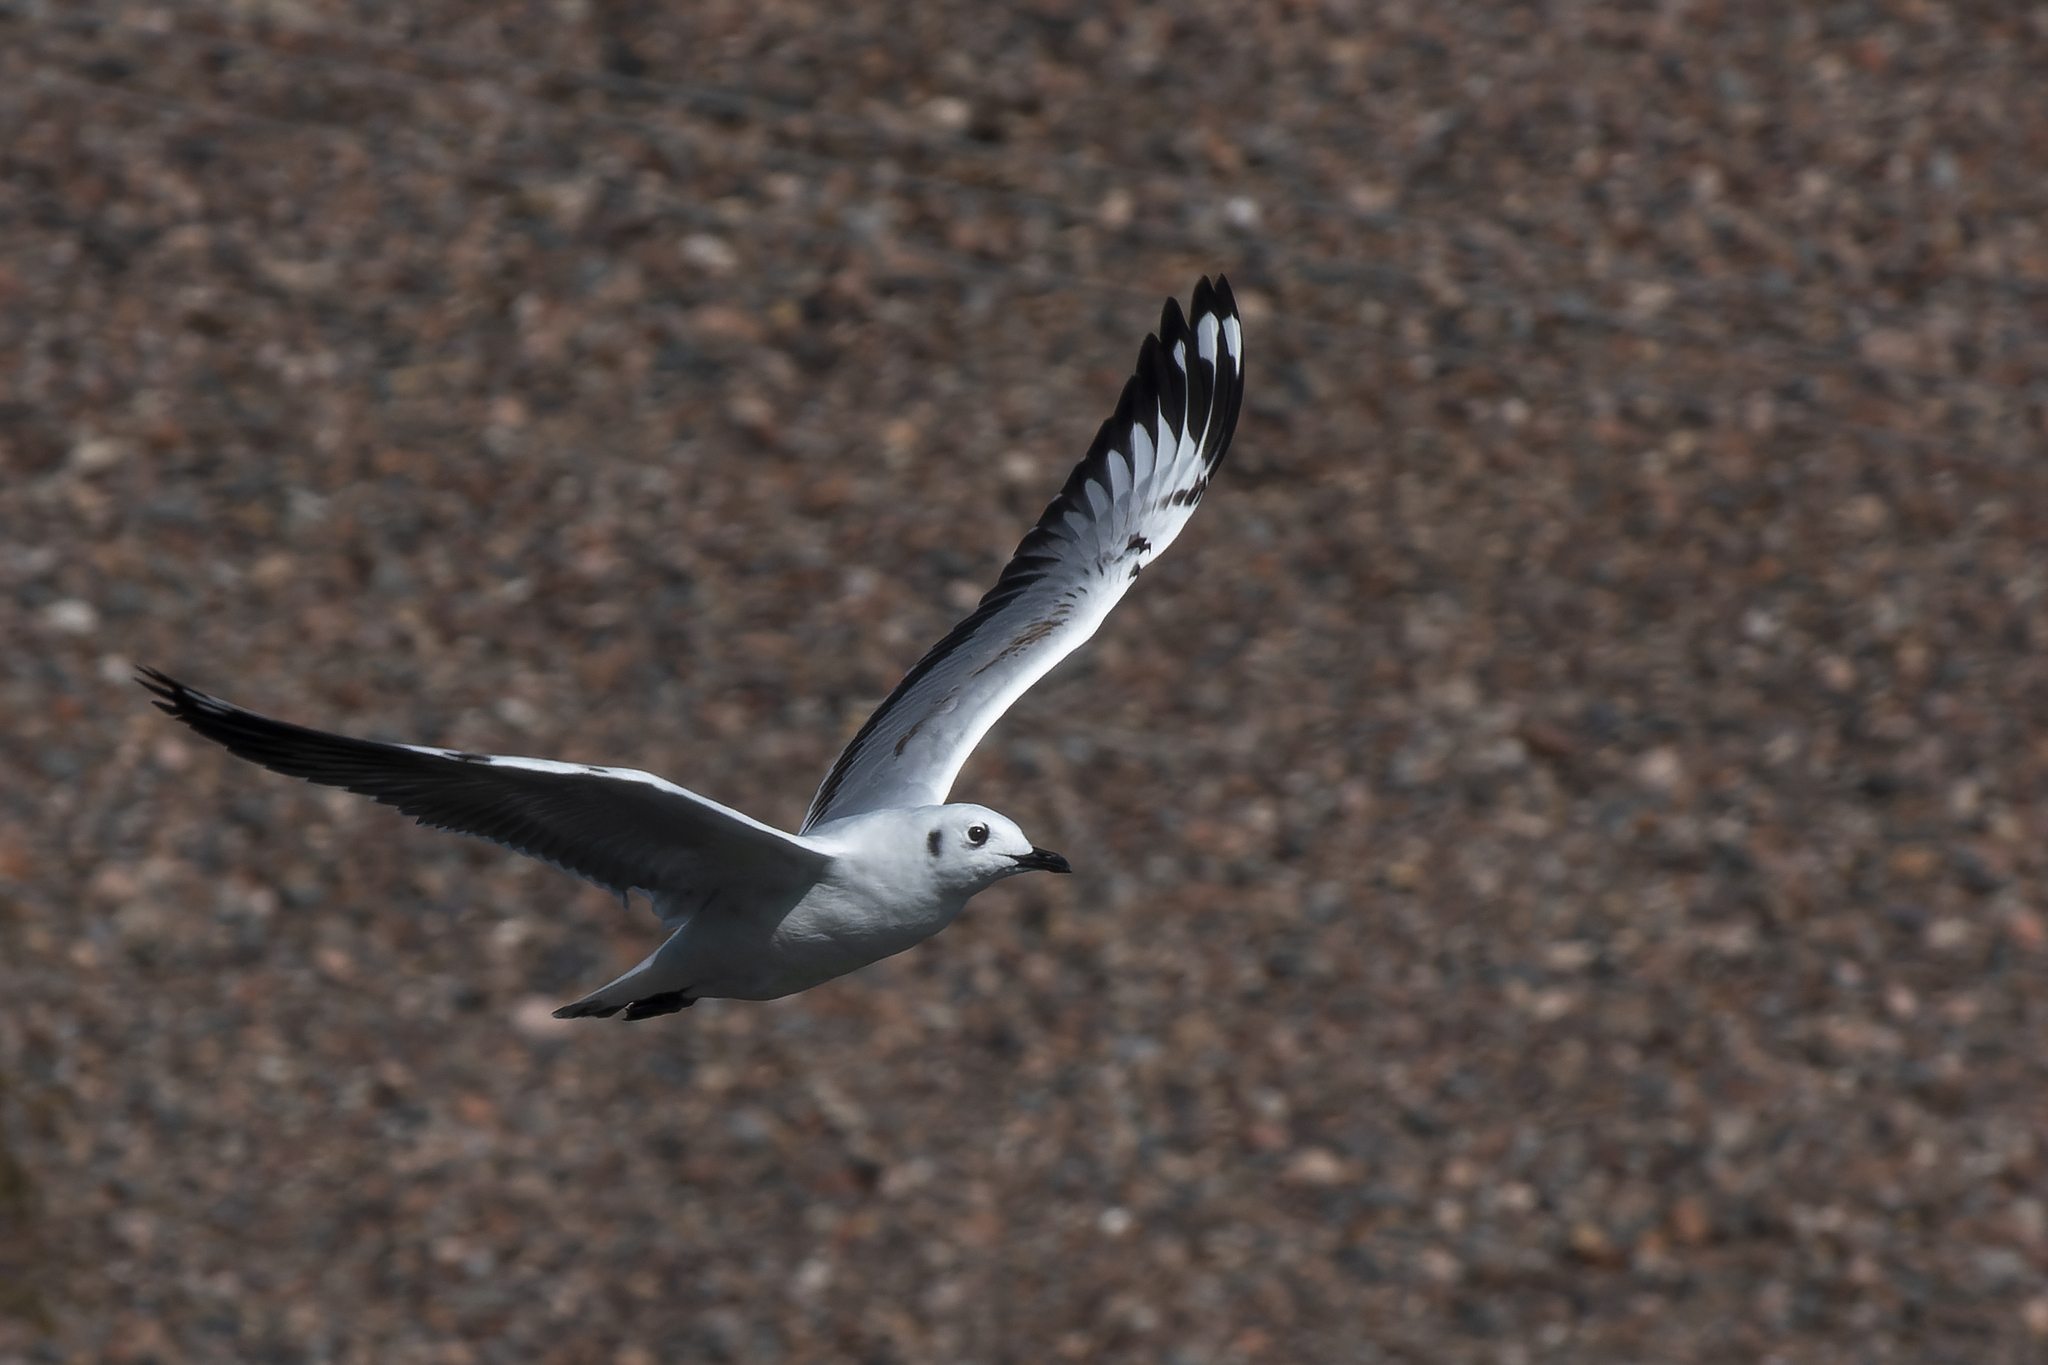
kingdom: Animalia
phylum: Chordata
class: Aves
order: Charadriiformes
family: Laridae
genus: Chroicocephalus
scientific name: Chroicocephalus serranus
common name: Andean gull
